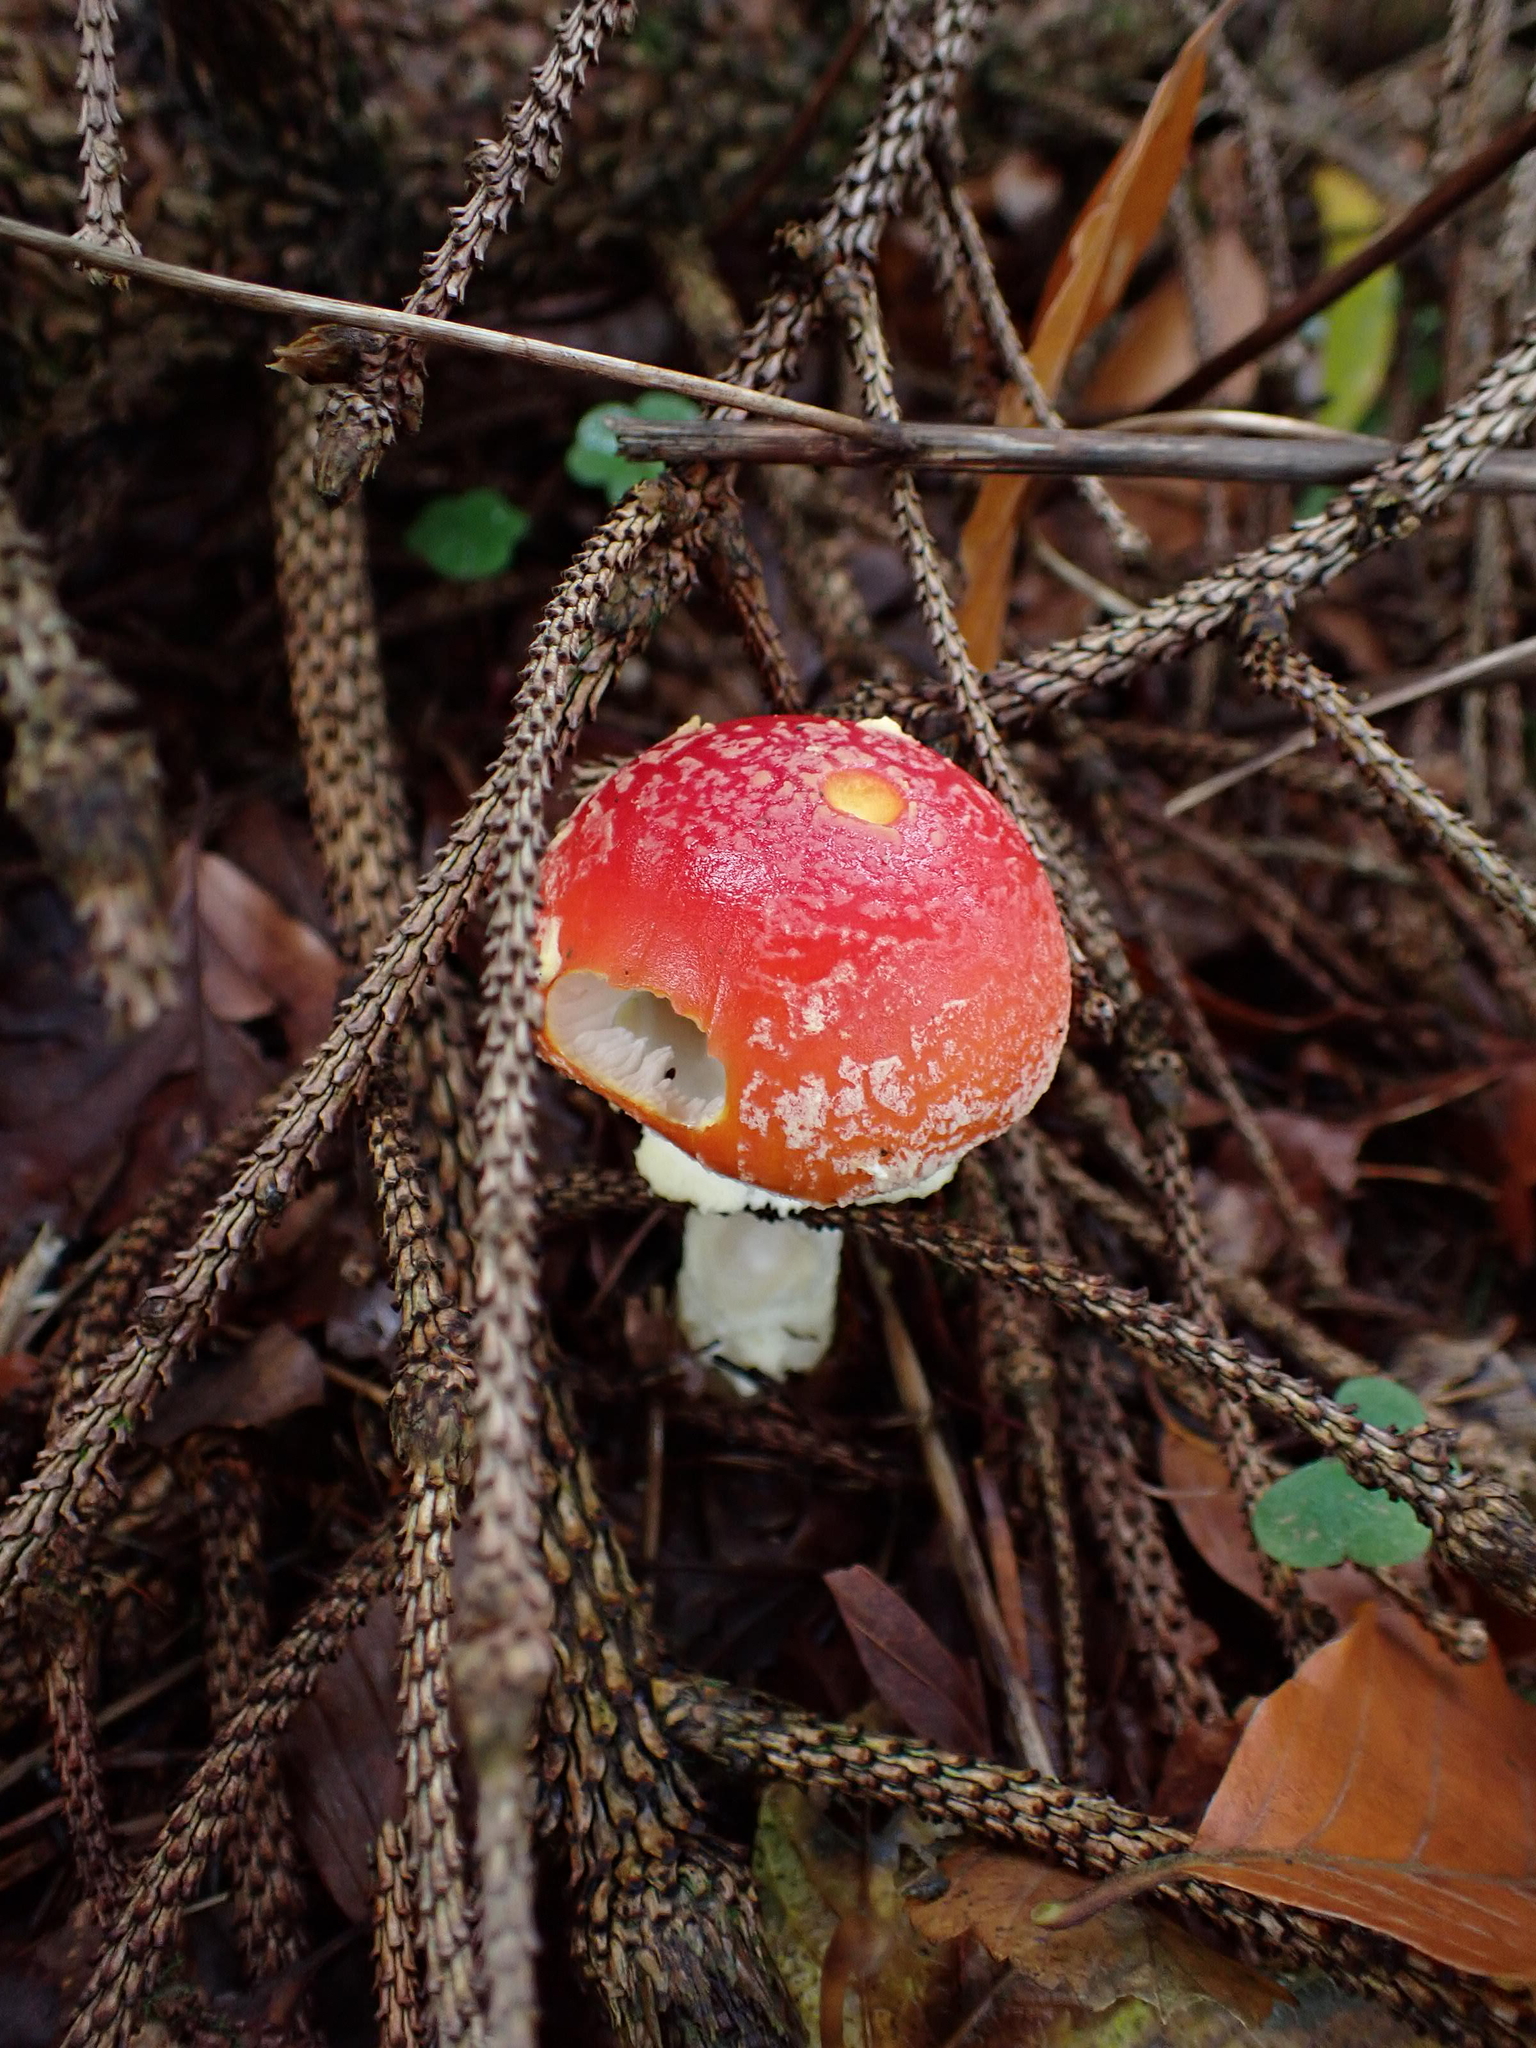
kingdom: Fungi
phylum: Basidiomycota
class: Agaricomycetes
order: Agaricales
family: Amanitaceae
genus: Amanita
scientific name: Amanita muscaria
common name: Fly agaric
